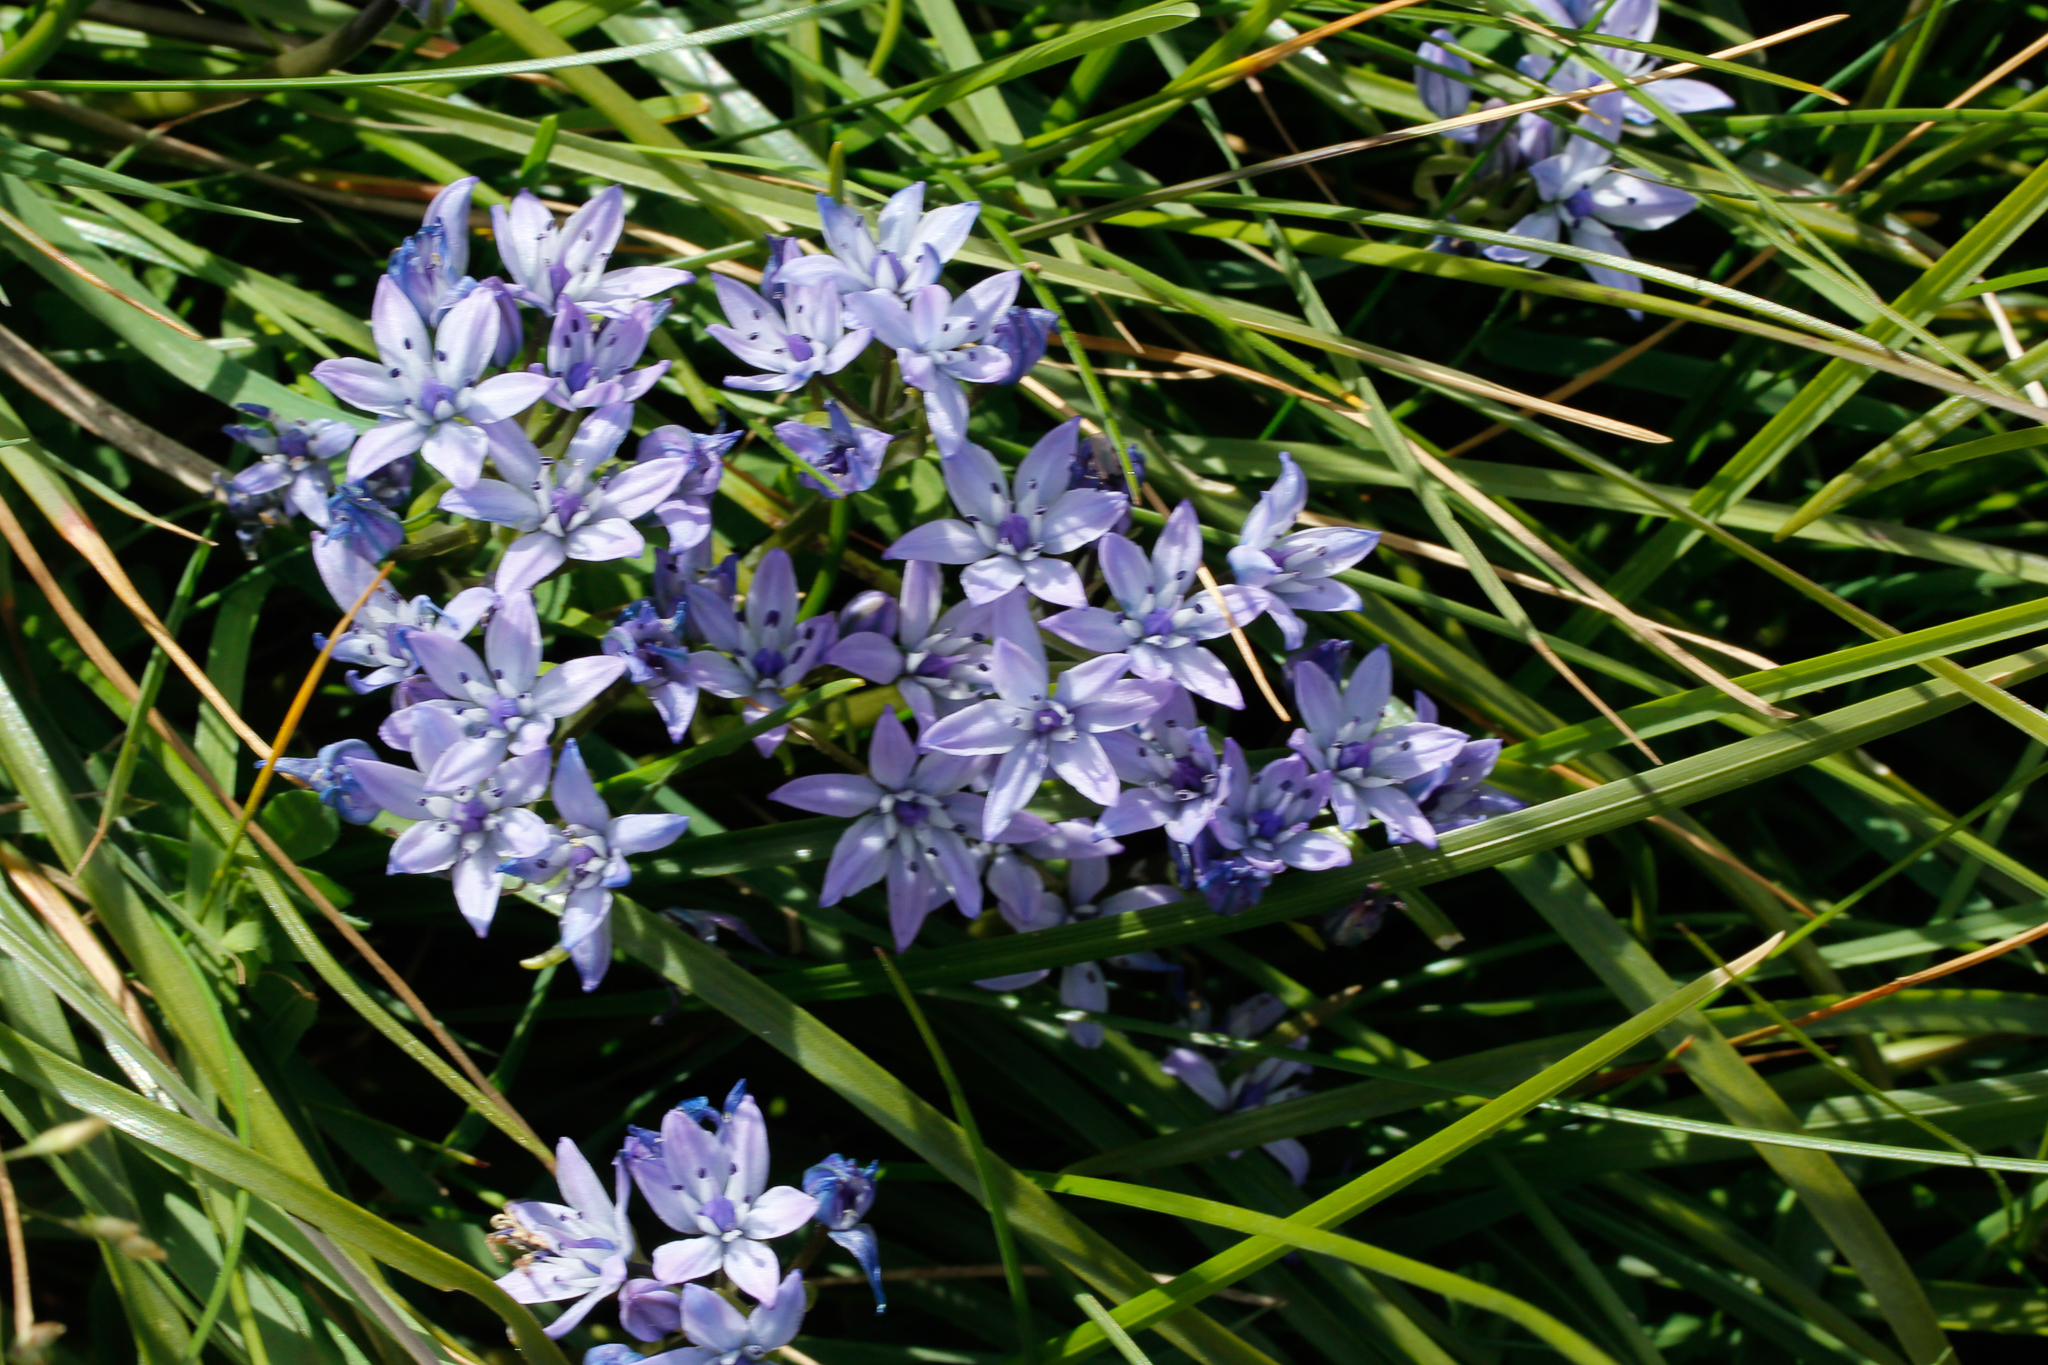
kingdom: Plantae
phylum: Tracheophyta
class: Liliopsida
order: Asparagales
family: Asparagaceae
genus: Scilla
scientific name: Scilla verna
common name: Spring squill
